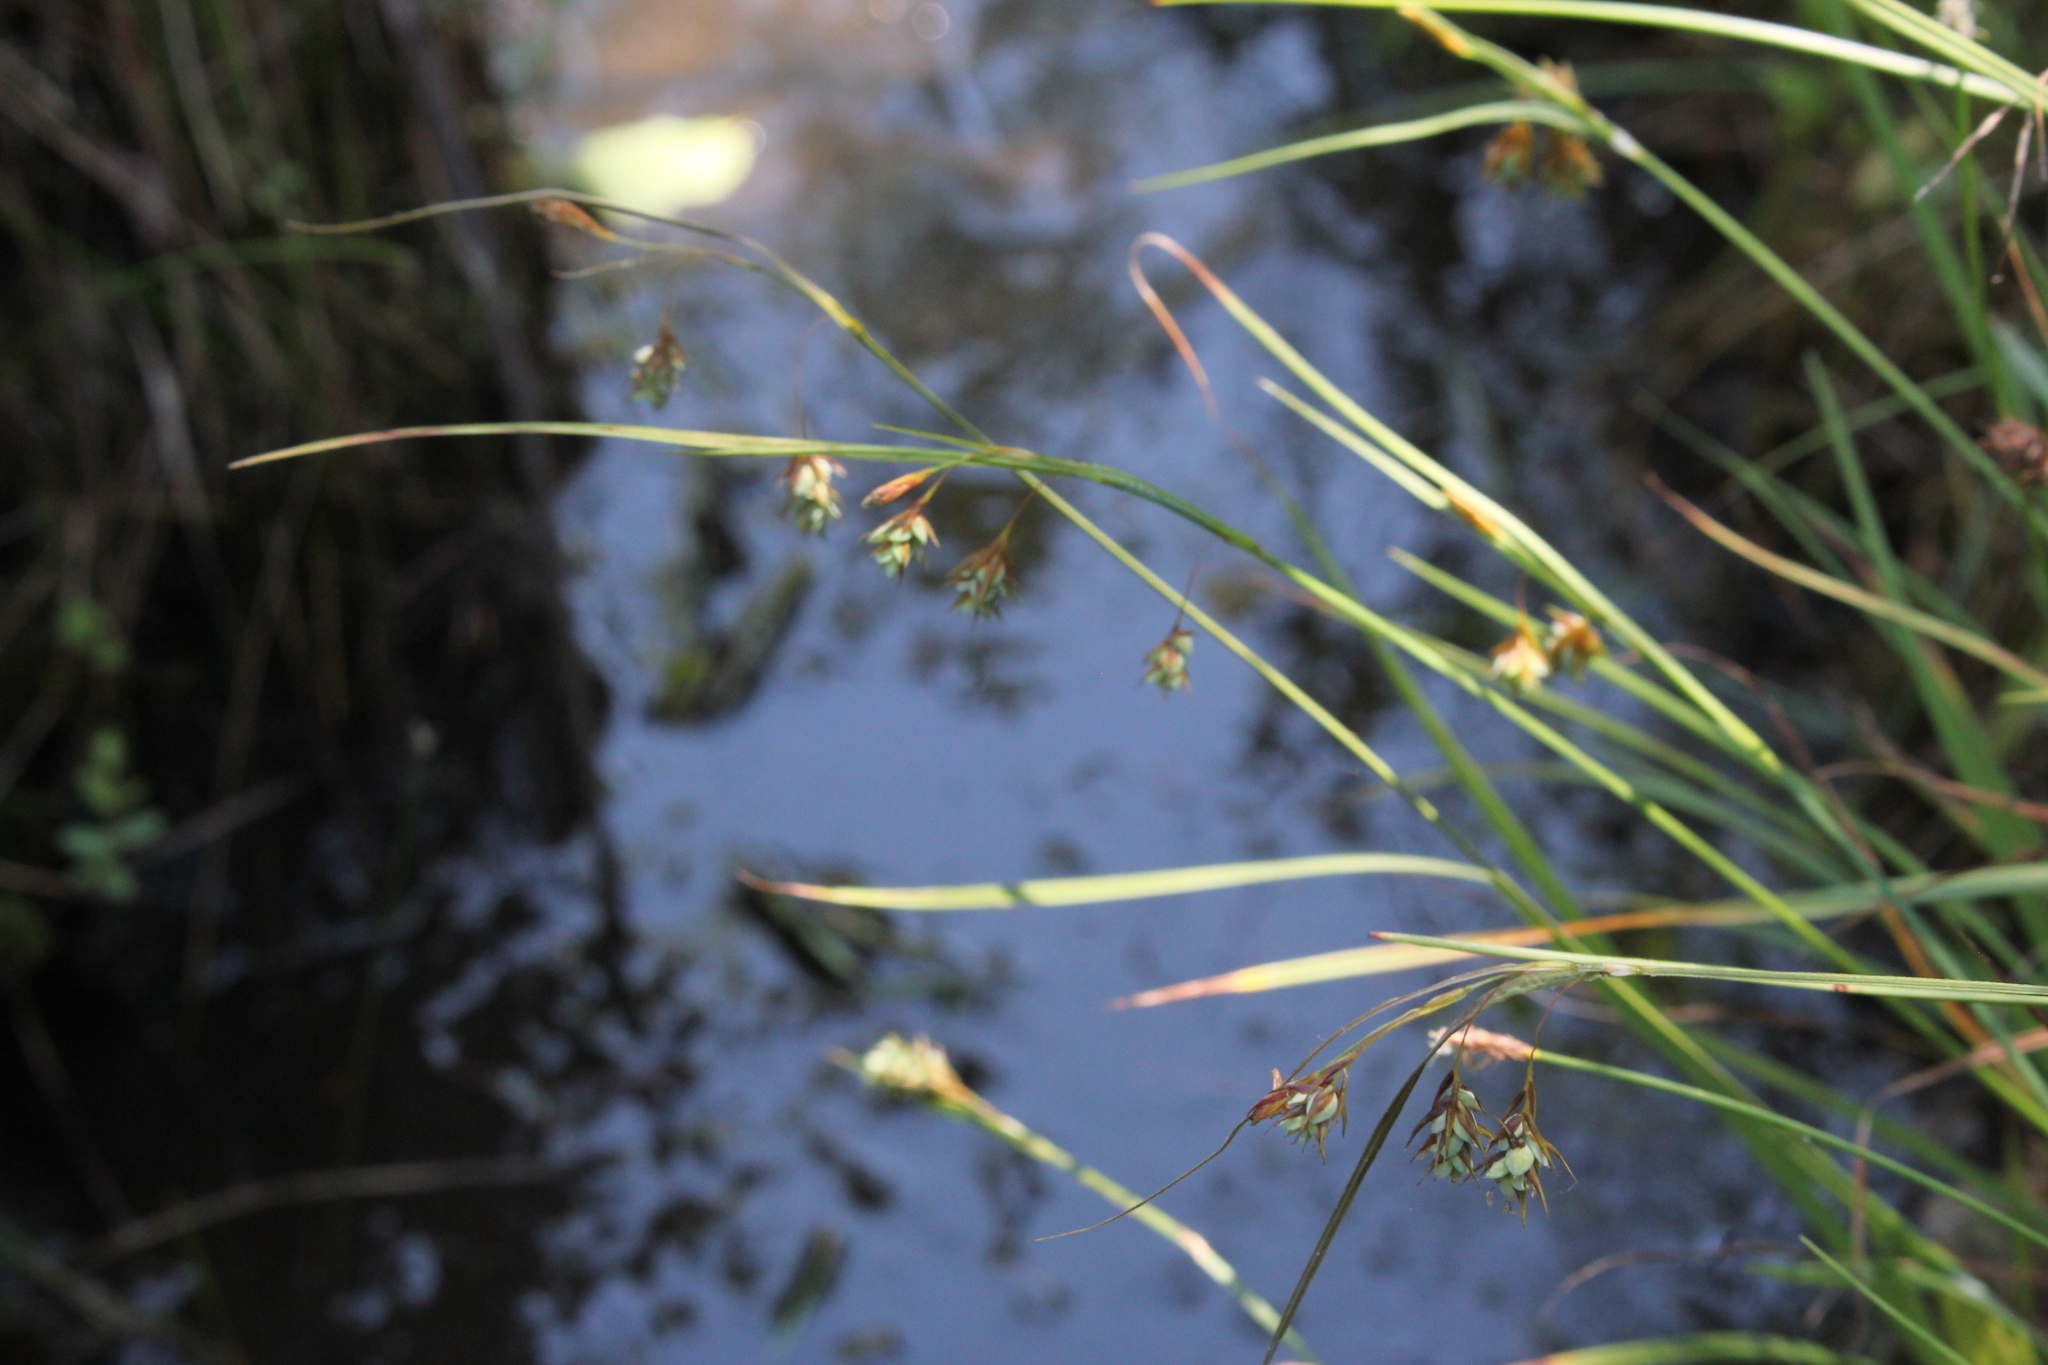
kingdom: Plantae
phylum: Tracheophyta
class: Liliopsida
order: Poales
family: Cyperaceae
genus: Carex
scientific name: Carex magellanica
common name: Bog sedge
